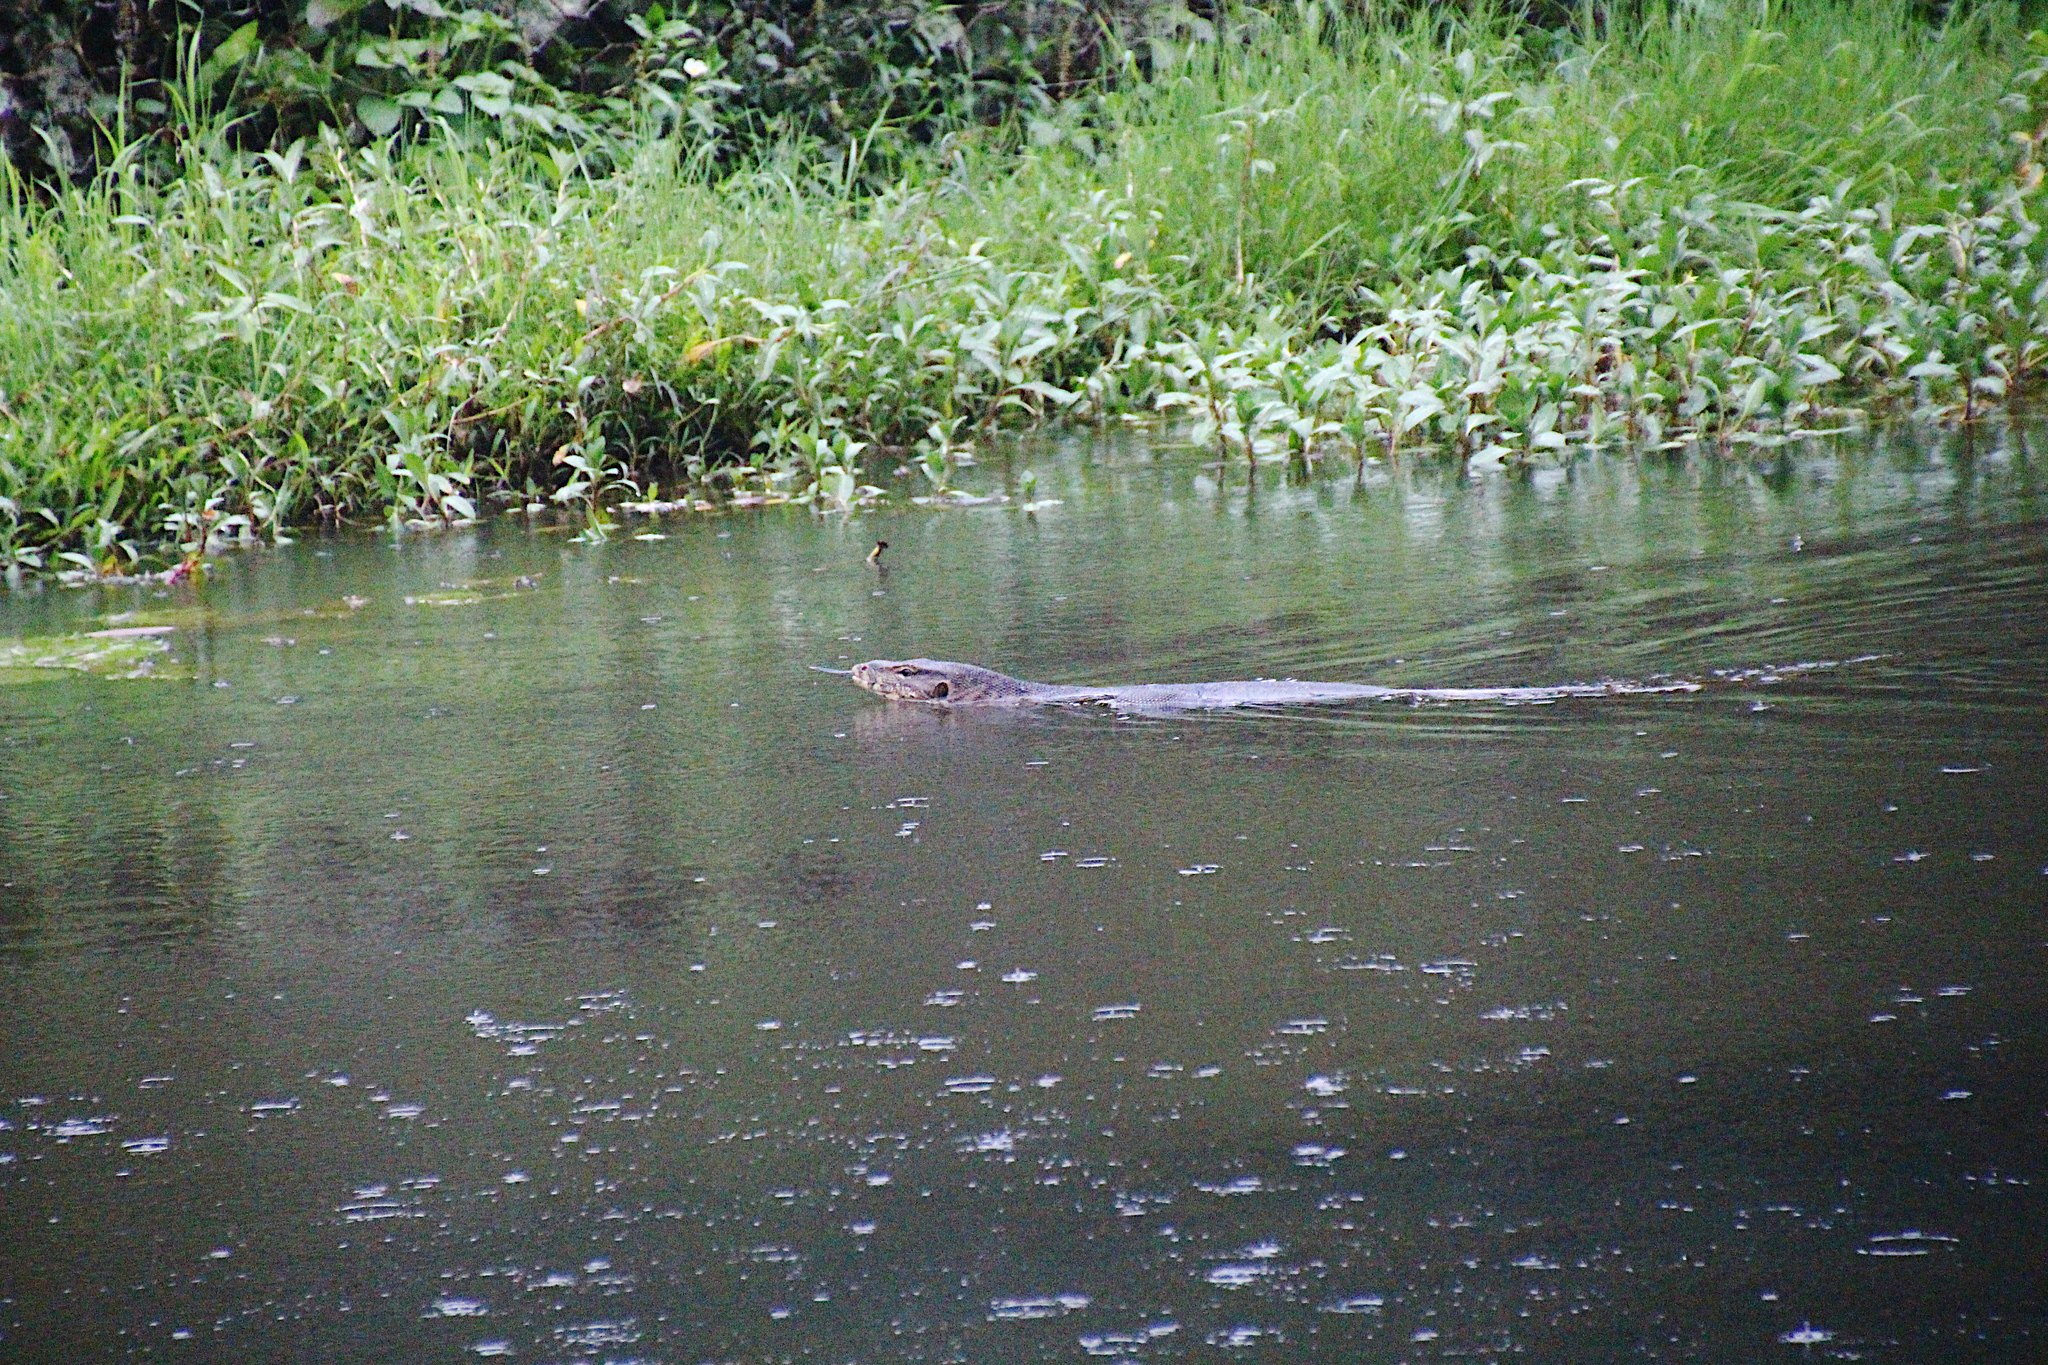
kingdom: Animalia
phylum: Chordata
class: Squamata
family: Varanidae
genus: Varanus
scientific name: Varanus salvator
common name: Common water monitor
